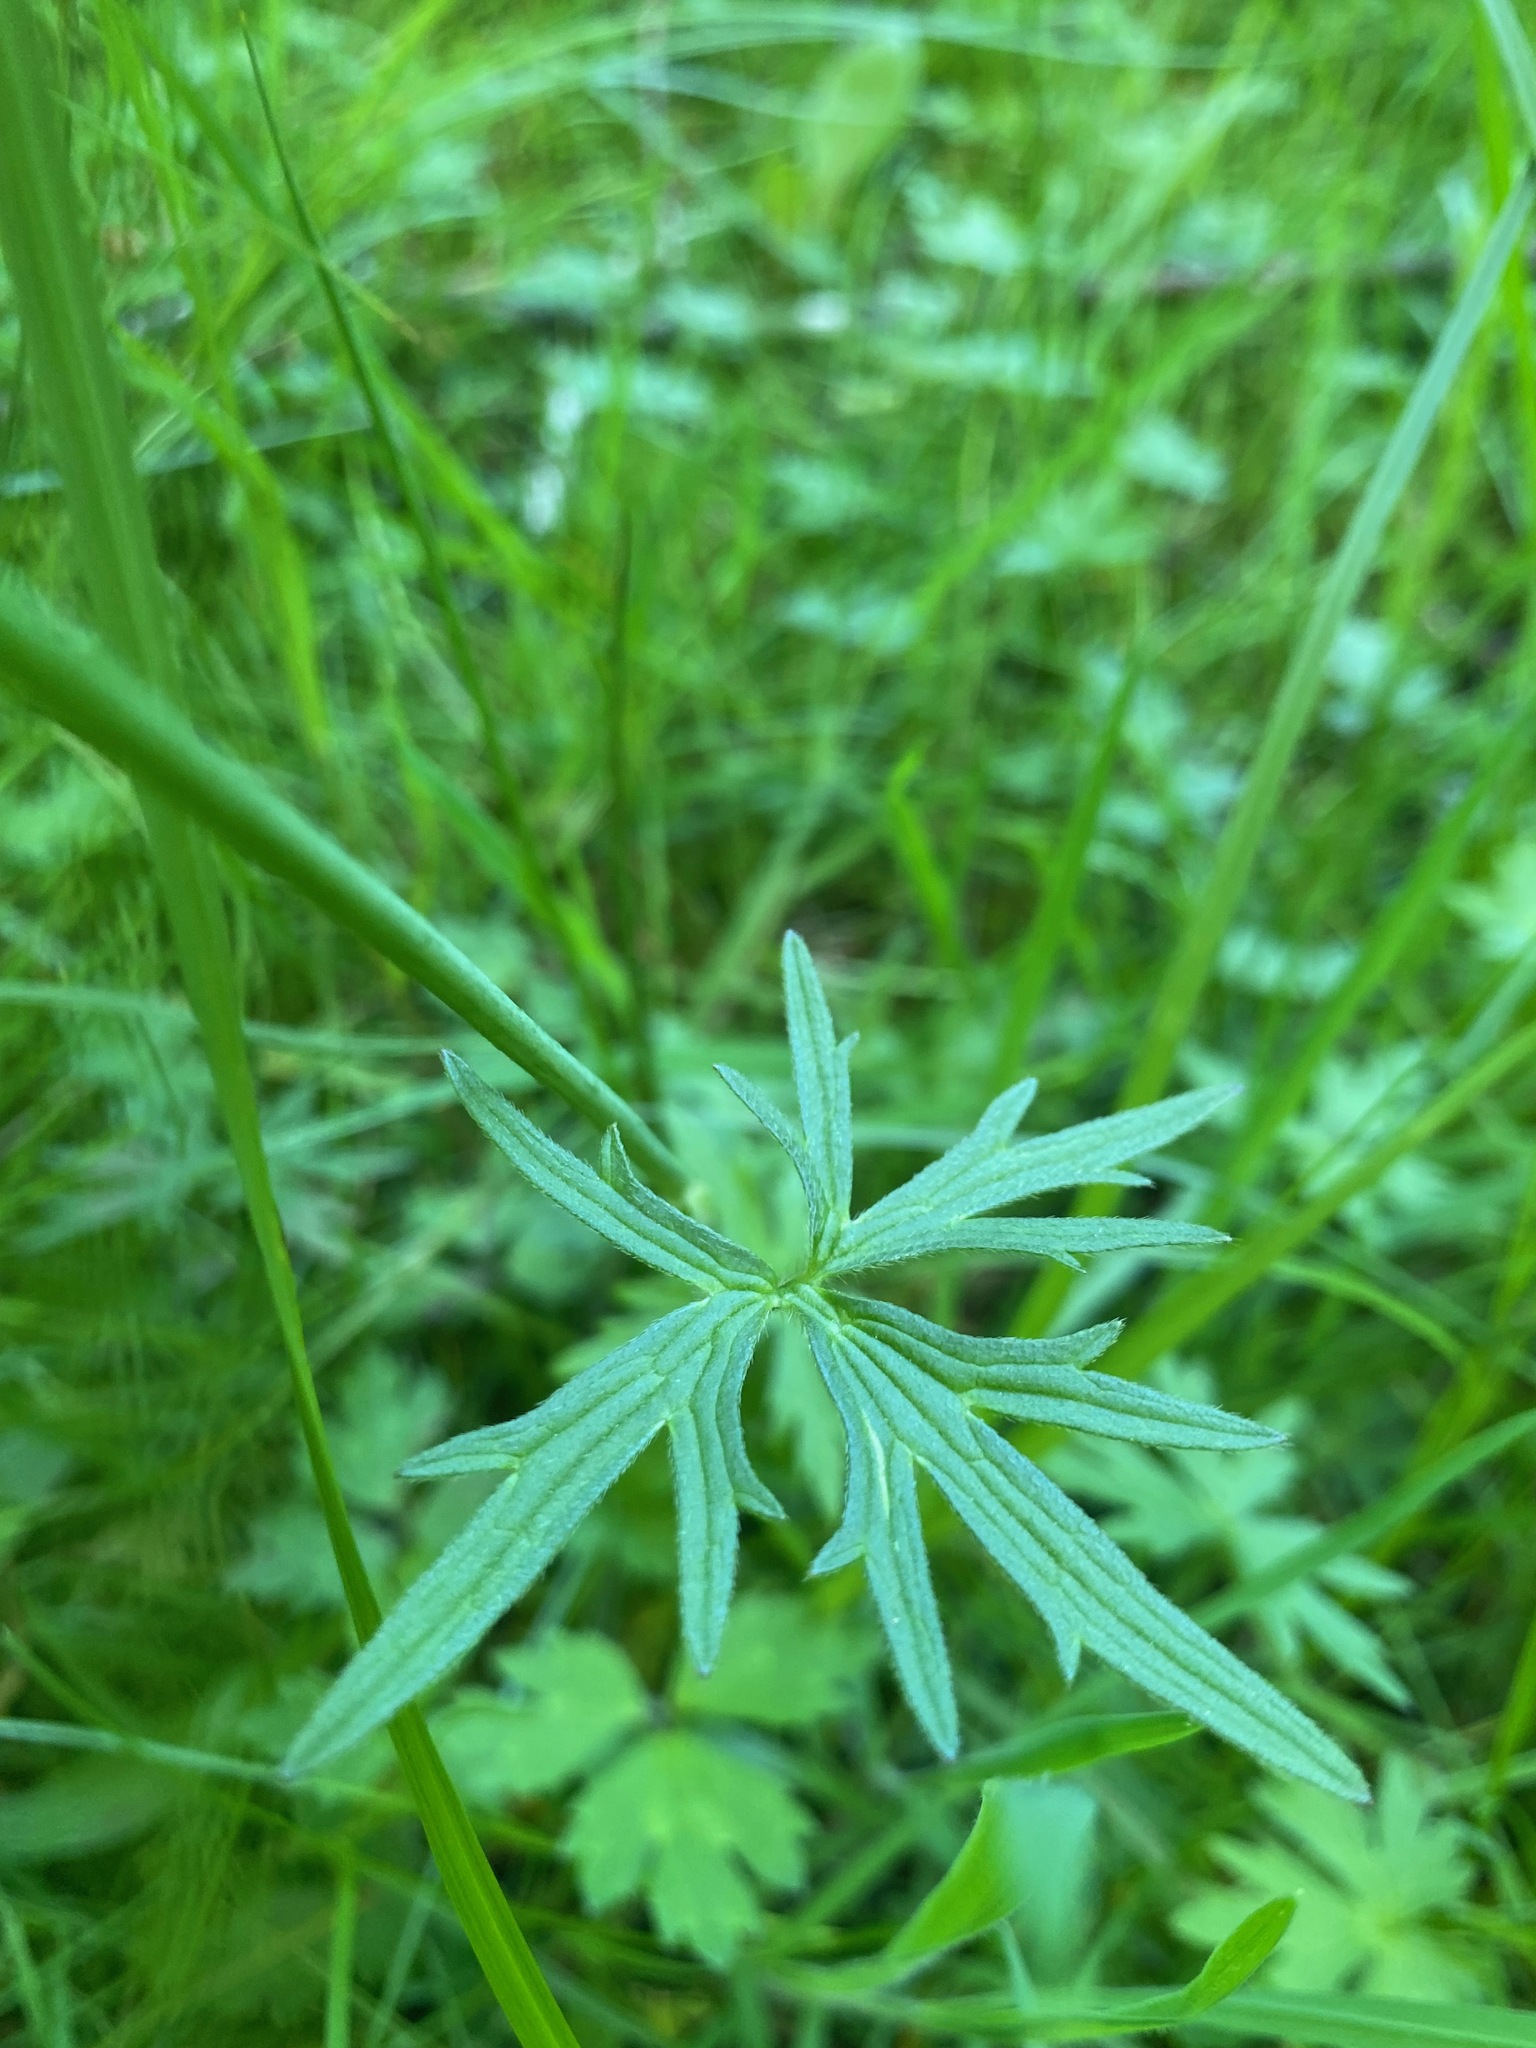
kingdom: Plantae
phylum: Tracheophyta
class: Magnoliopsida
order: Ranunculales
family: Ranunculaceae
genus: Ranunculus
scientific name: Ranunculus acris
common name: Meadow buttercup
